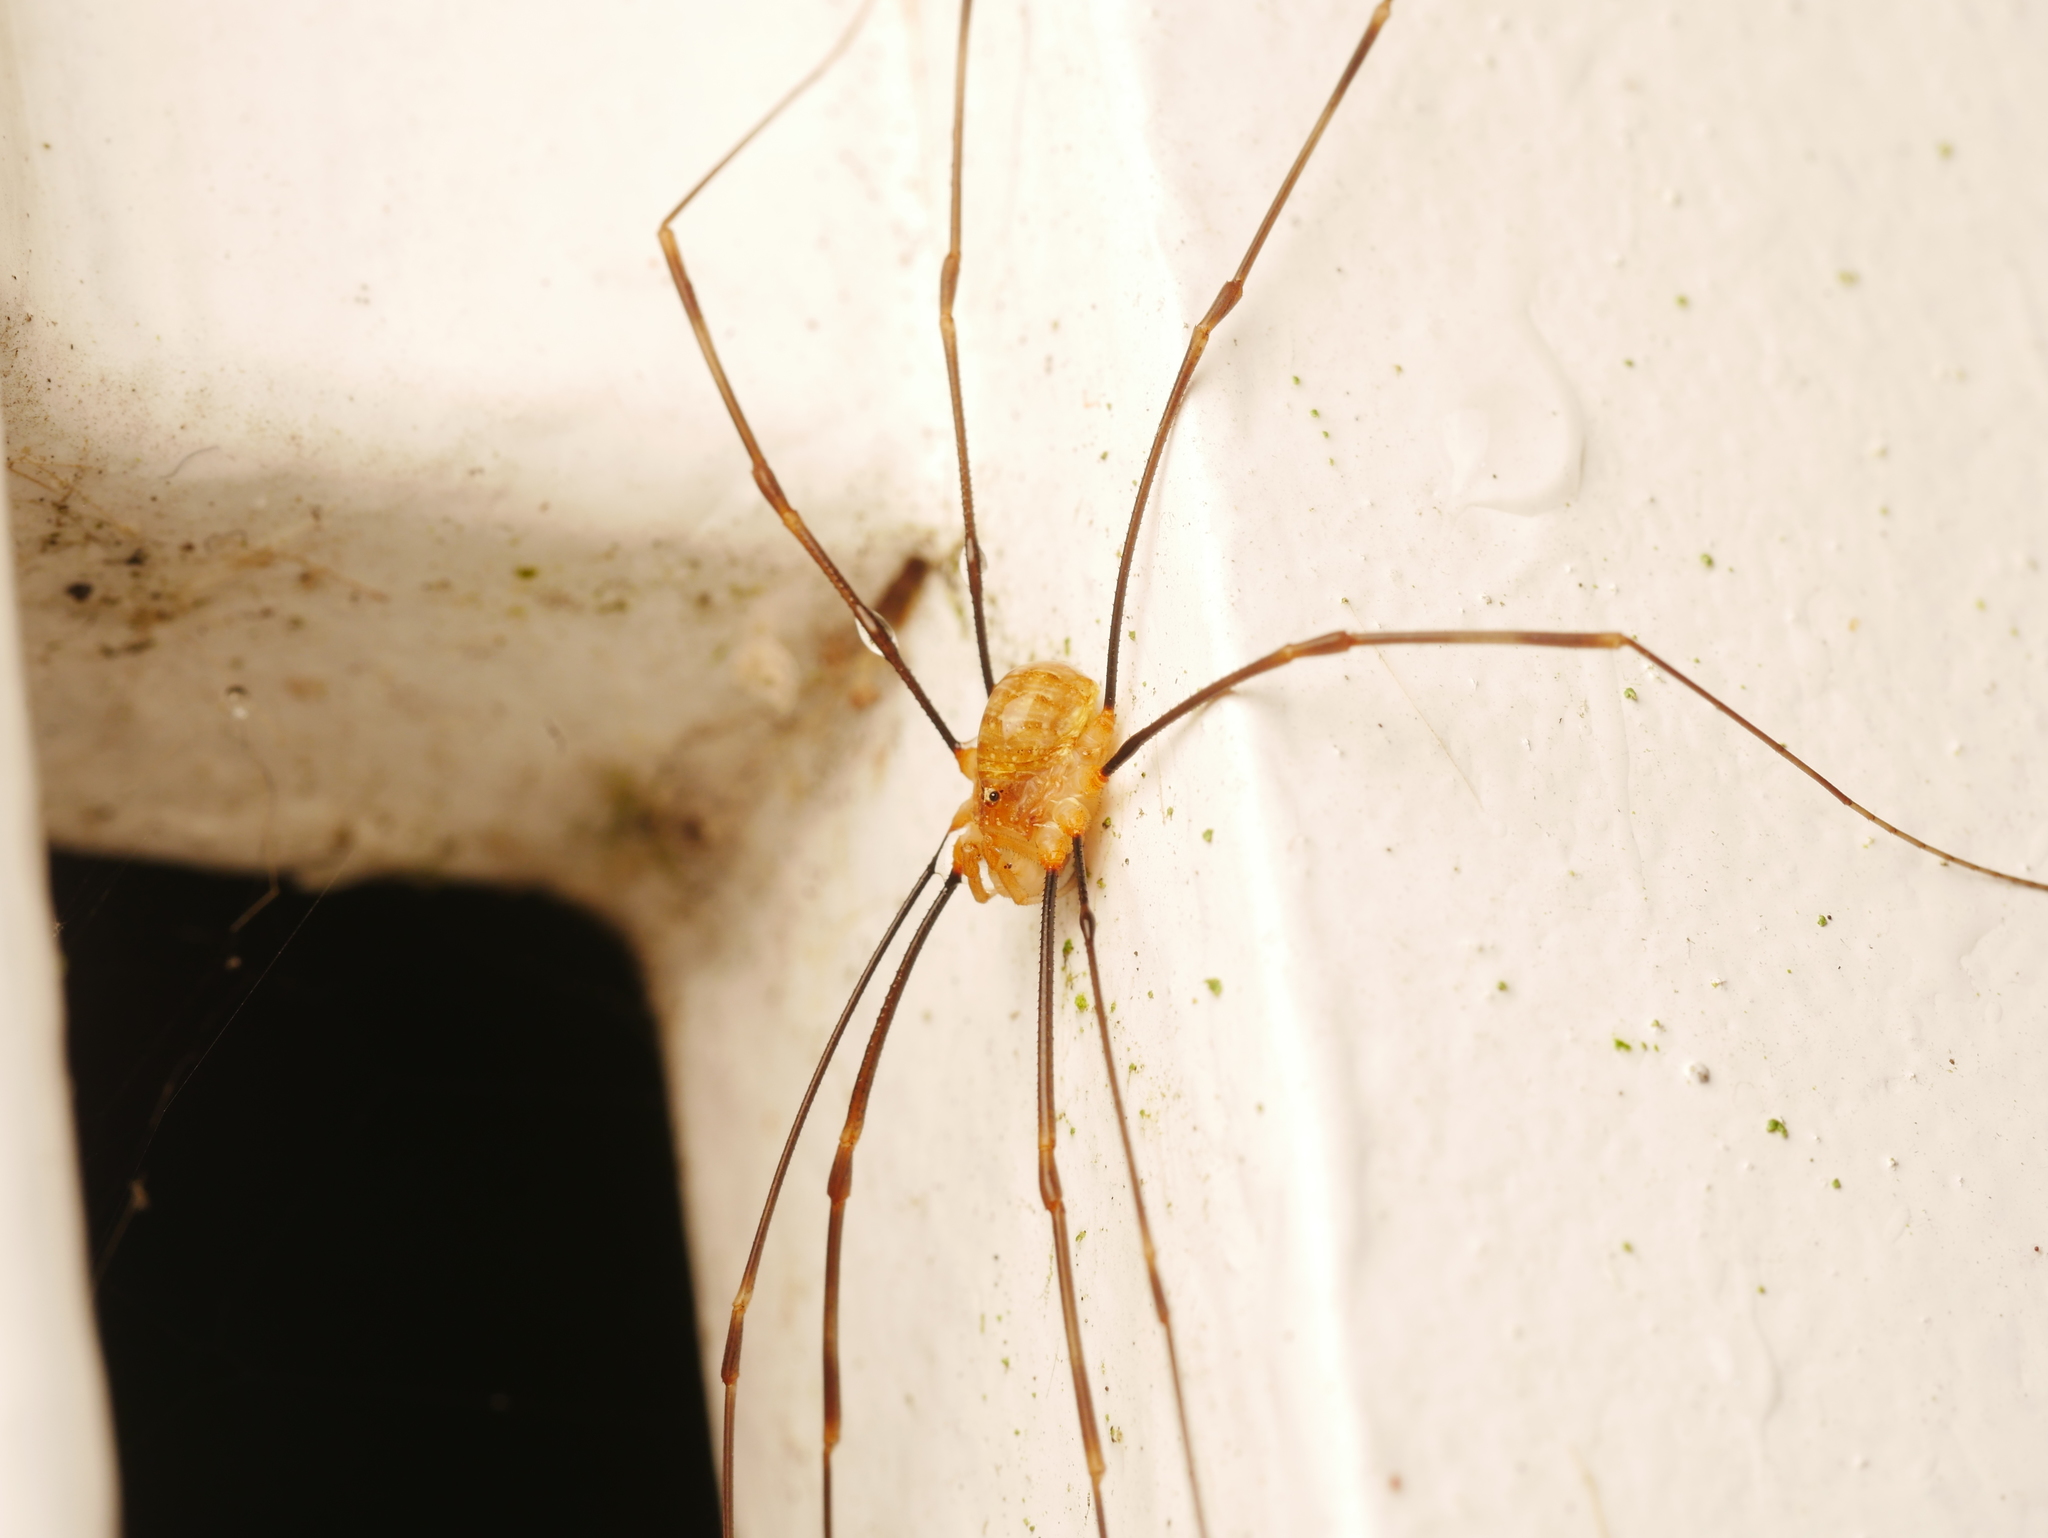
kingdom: Animalia
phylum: Arthropoda
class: Arachnida
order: Opiliones
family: Phalangiidae
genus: Opilio
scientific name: Opilio canestrinii
